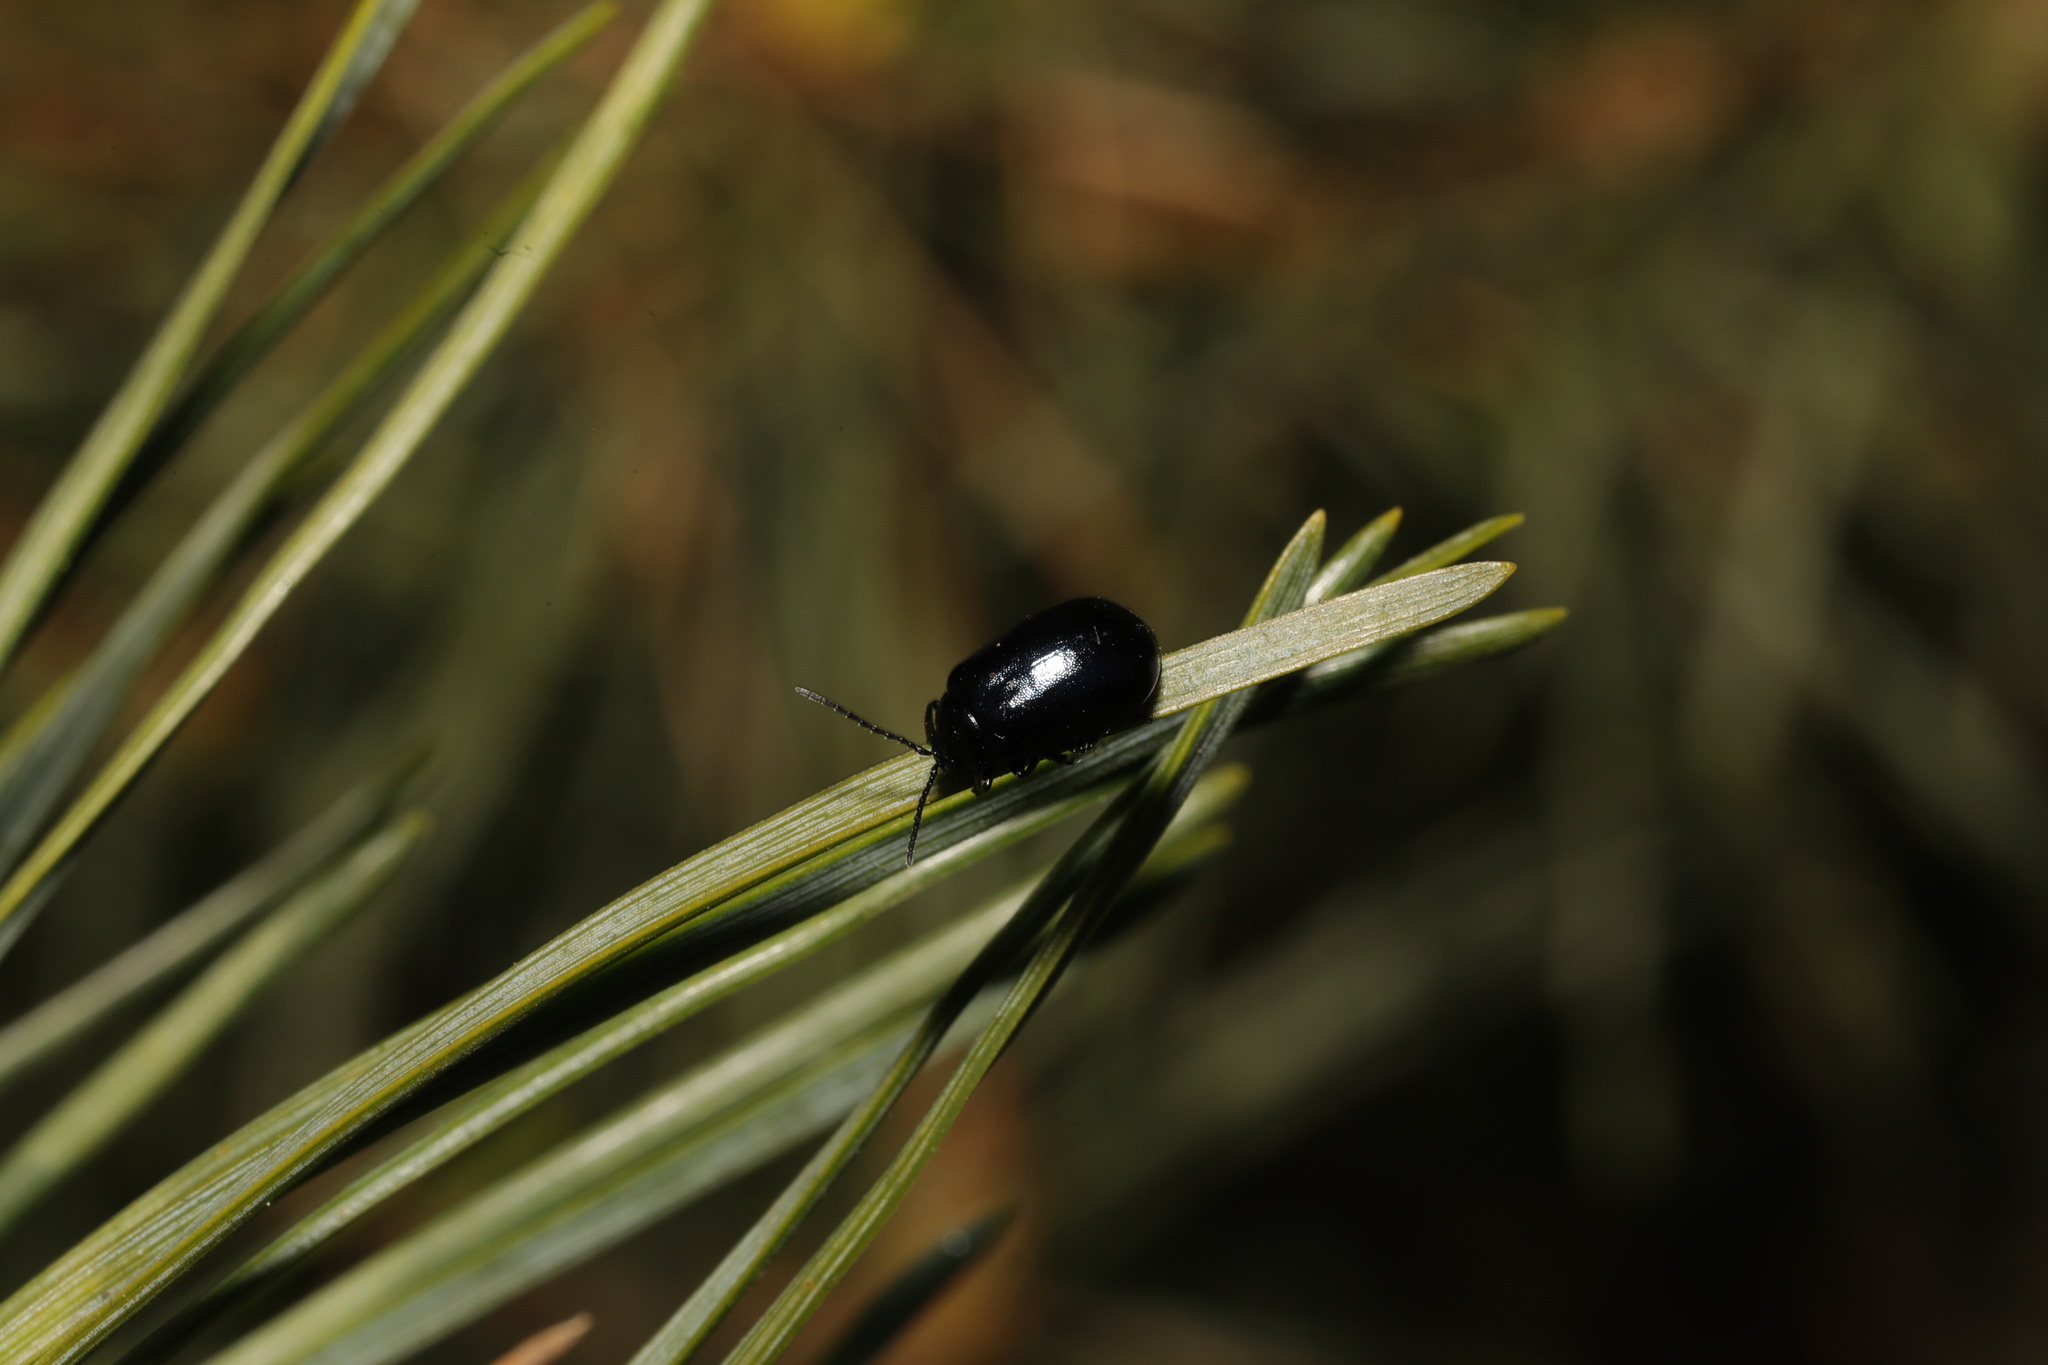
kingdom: Animalia
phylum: Arthropoda
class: Insecta
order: Coleoptera
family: Chrysomelidae
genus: Agelastica
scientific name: Agelastica alni
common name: Alder leaf beetle
